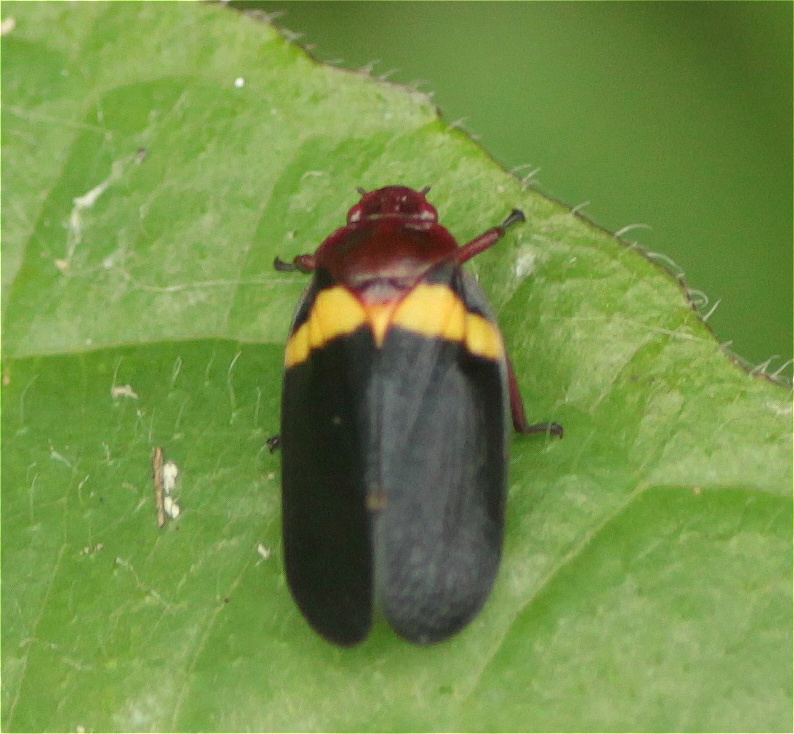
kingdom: Animalia
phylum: Arthropoda
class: Insecta
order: Hemiptera
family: Cercopidae
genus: Sphenorhina
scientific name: Sphenorhina obliterata
